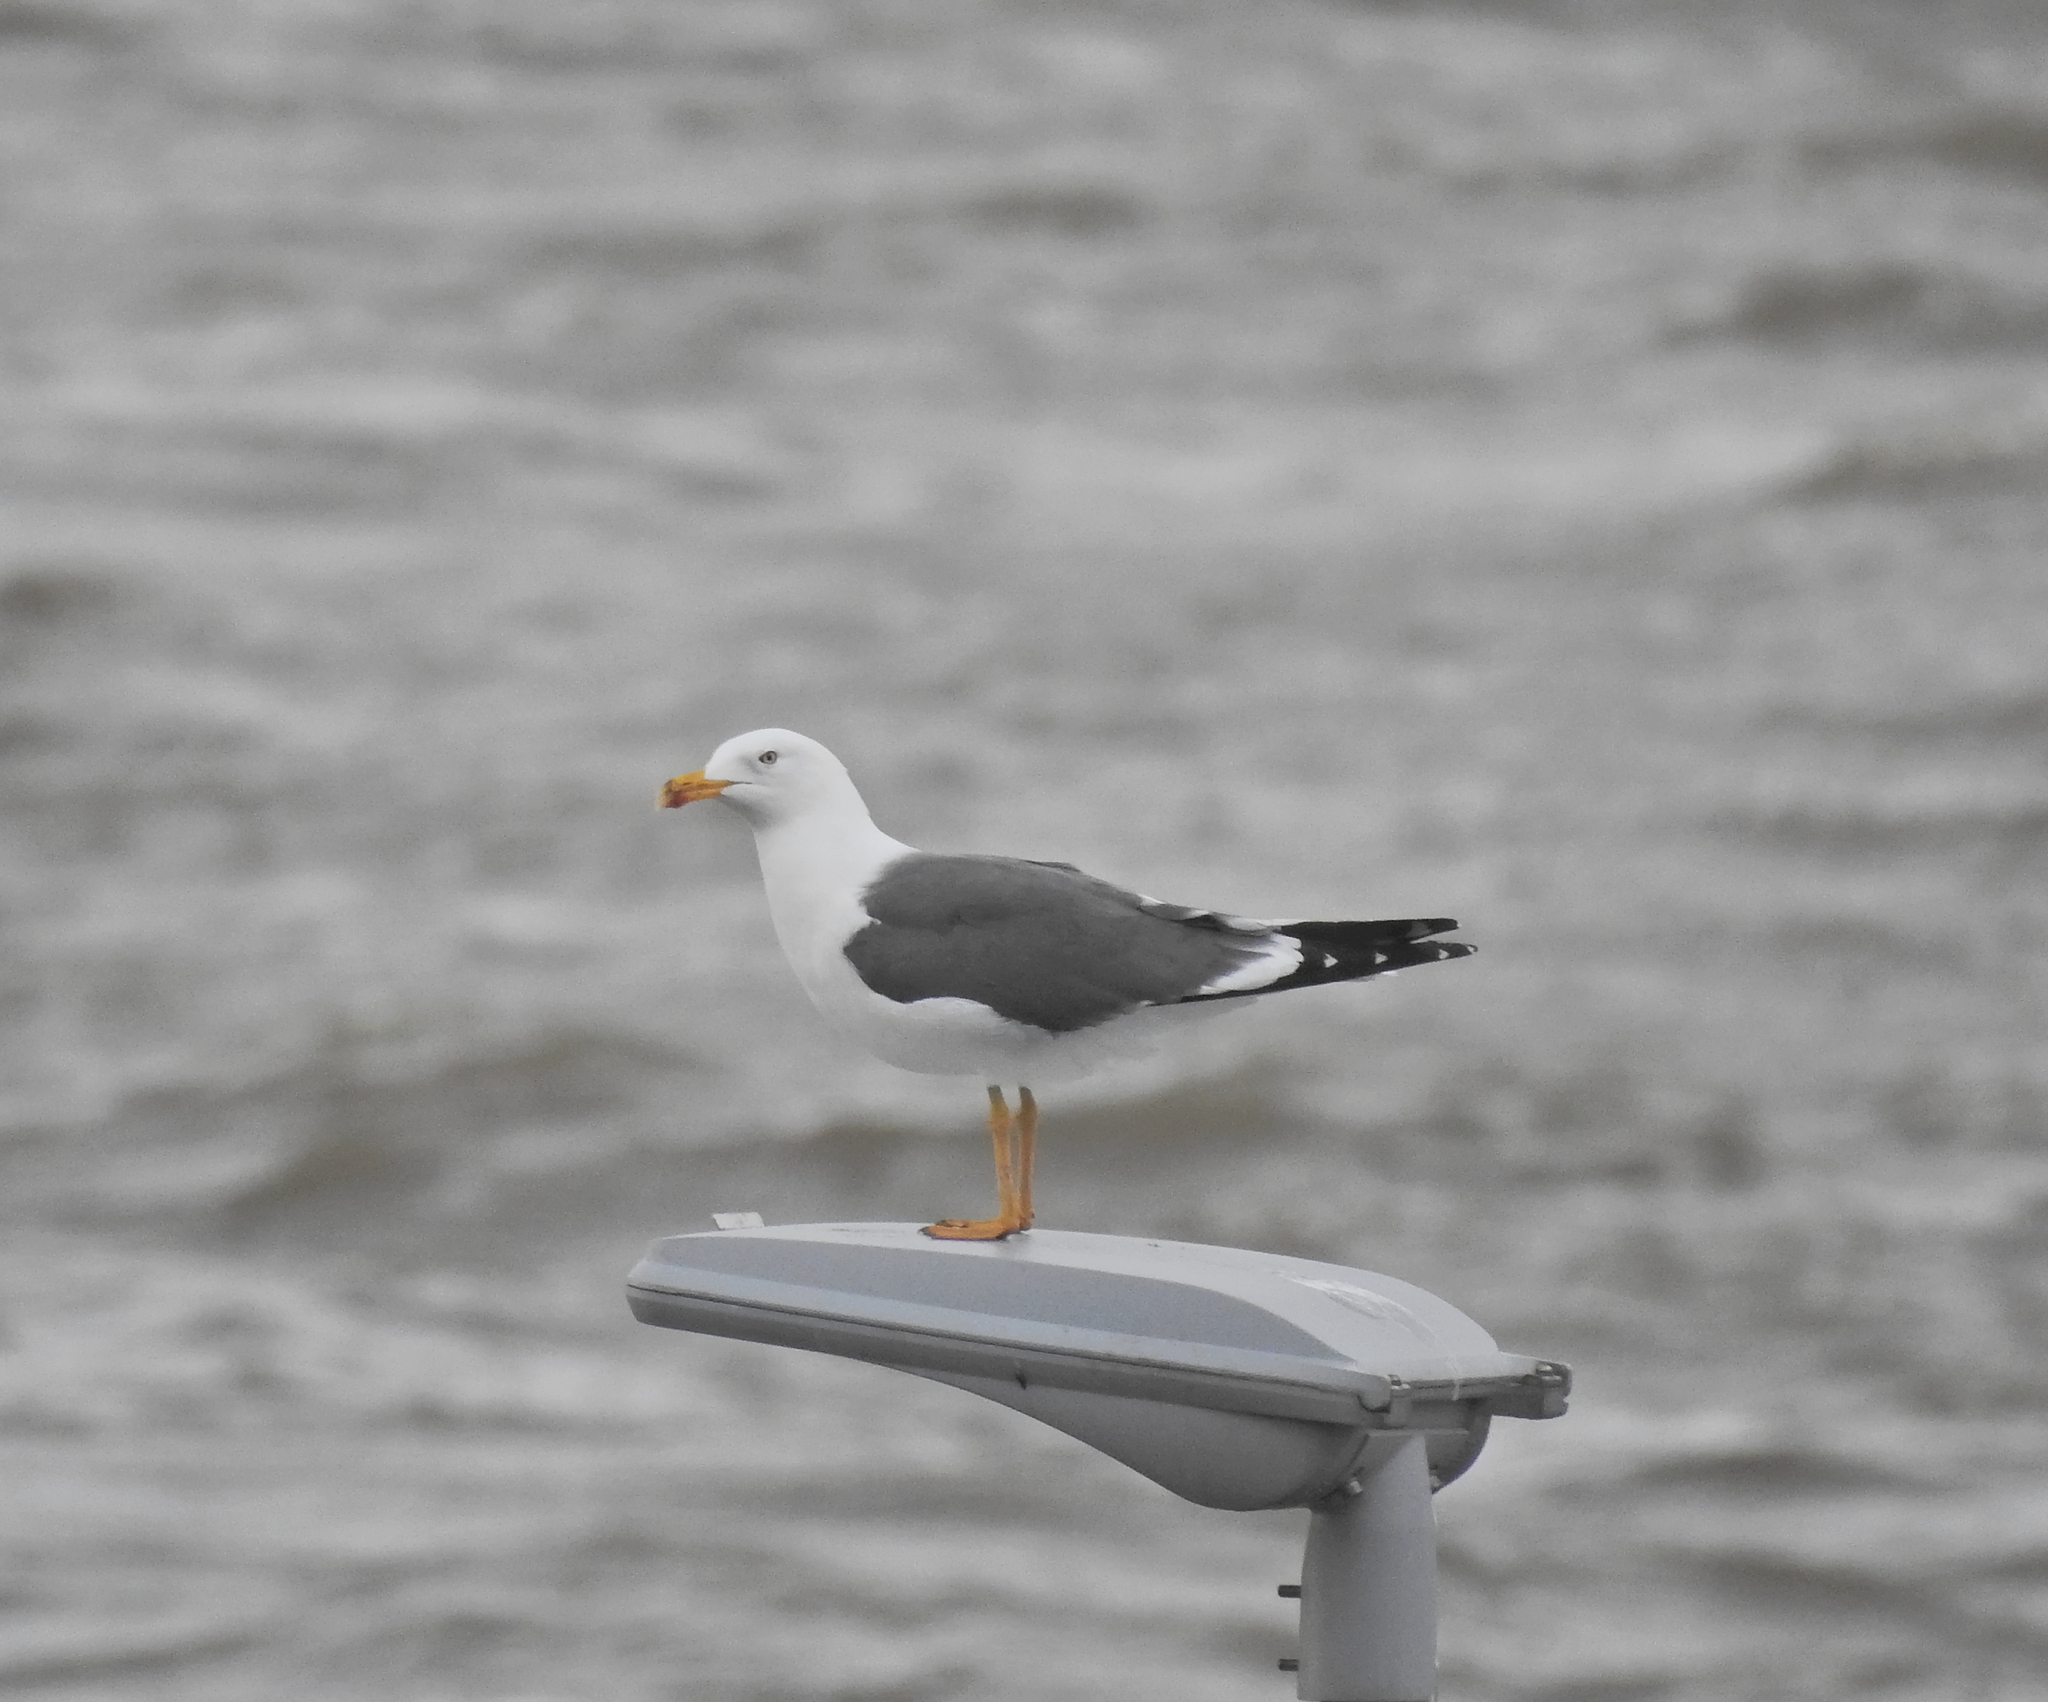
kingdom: Animalia
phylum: Chordata
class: Aves
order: Charadriiformes
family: Laridae
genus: Larus
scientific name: Larus fuscus
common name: Lesser black-backed gull
